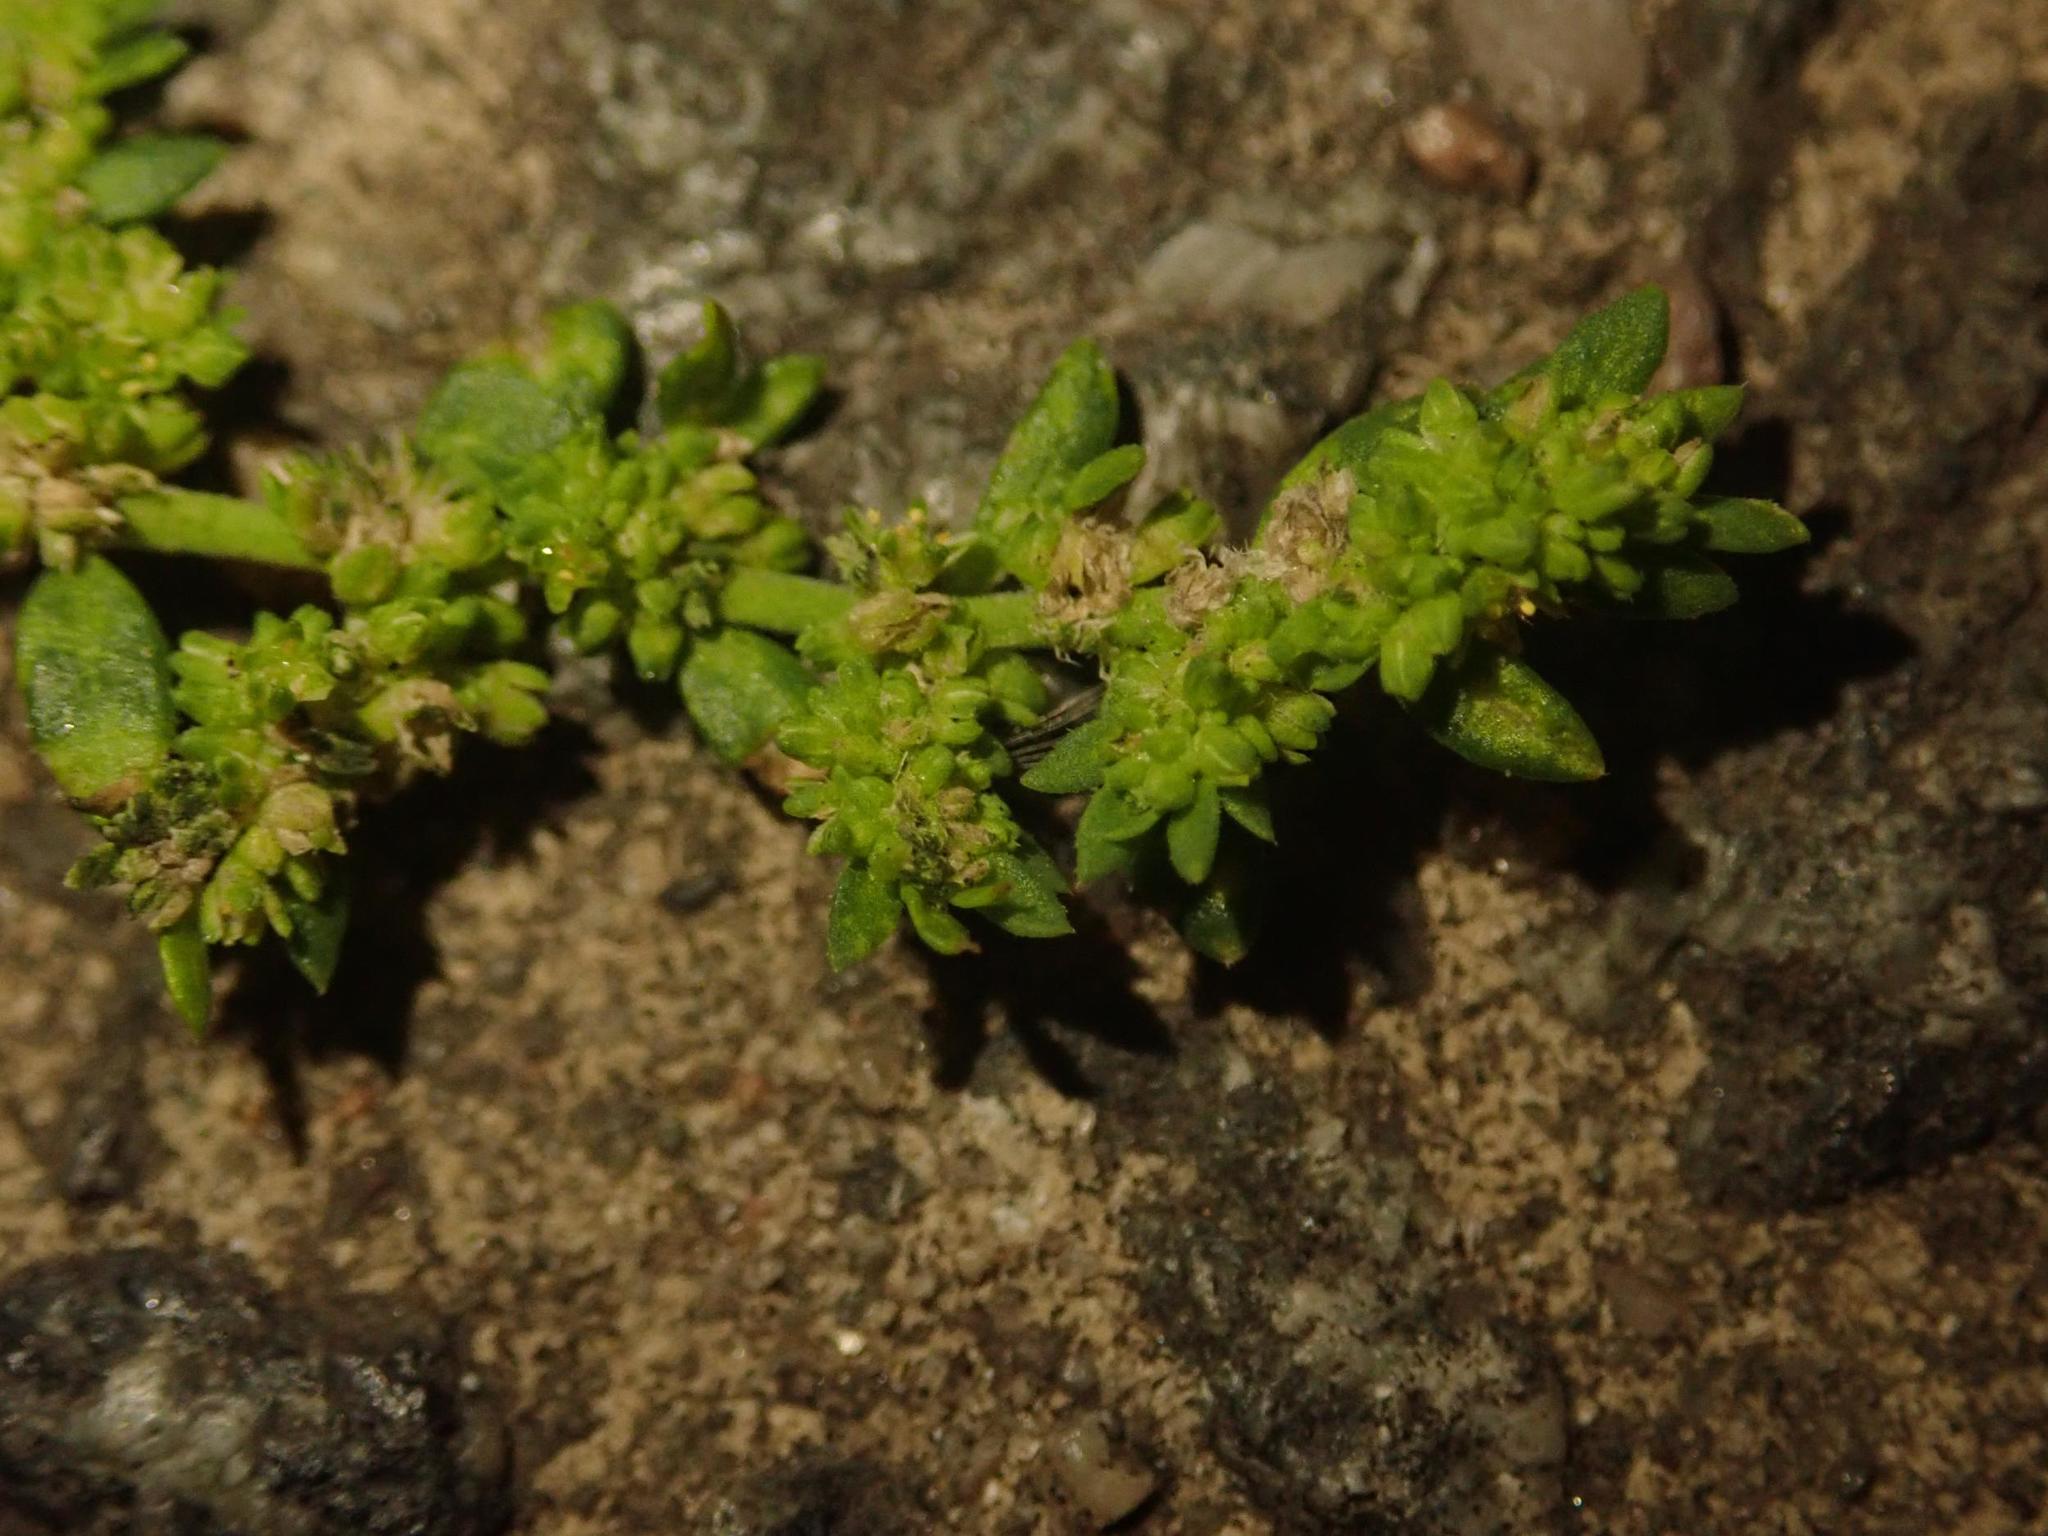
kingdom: Plantae
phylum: Tracheophyta
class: Magnoliopsida
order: Caryophyllales
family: Caryophyllaceae
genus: Herniaria
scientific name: Herniaria glabra
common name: Smooth rupturewort
